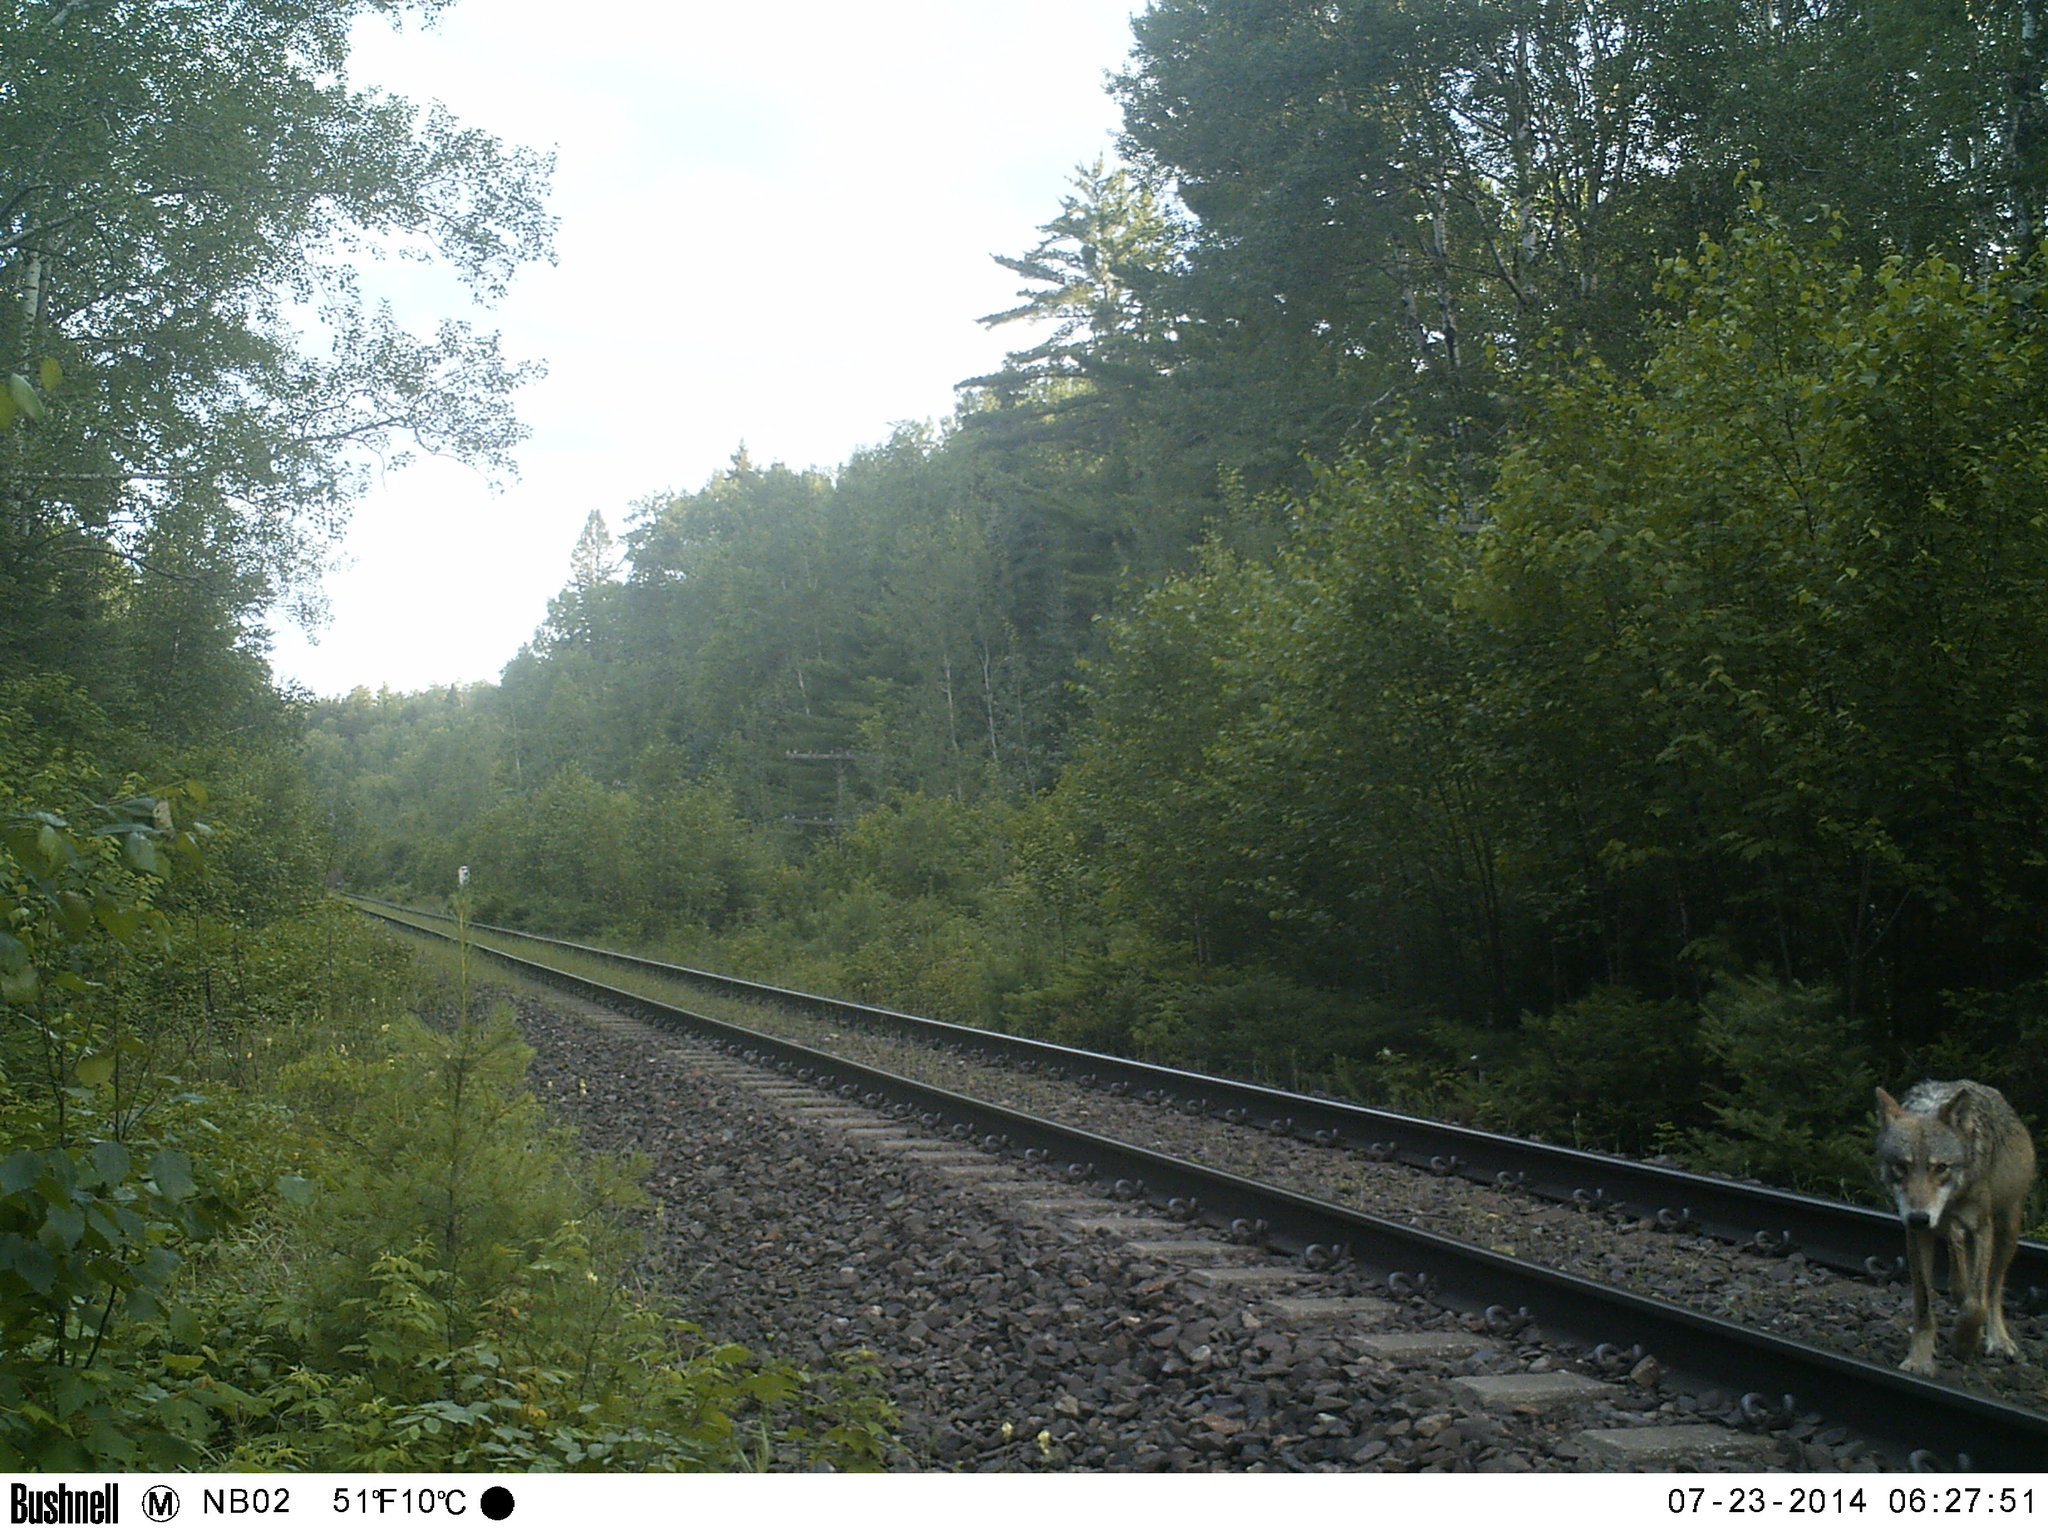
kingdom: Animalia
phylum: Chordata
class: Mammalia
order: Carnivora
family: Canidae
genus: Canis
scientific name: Canis lupus
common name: Gray wolf
